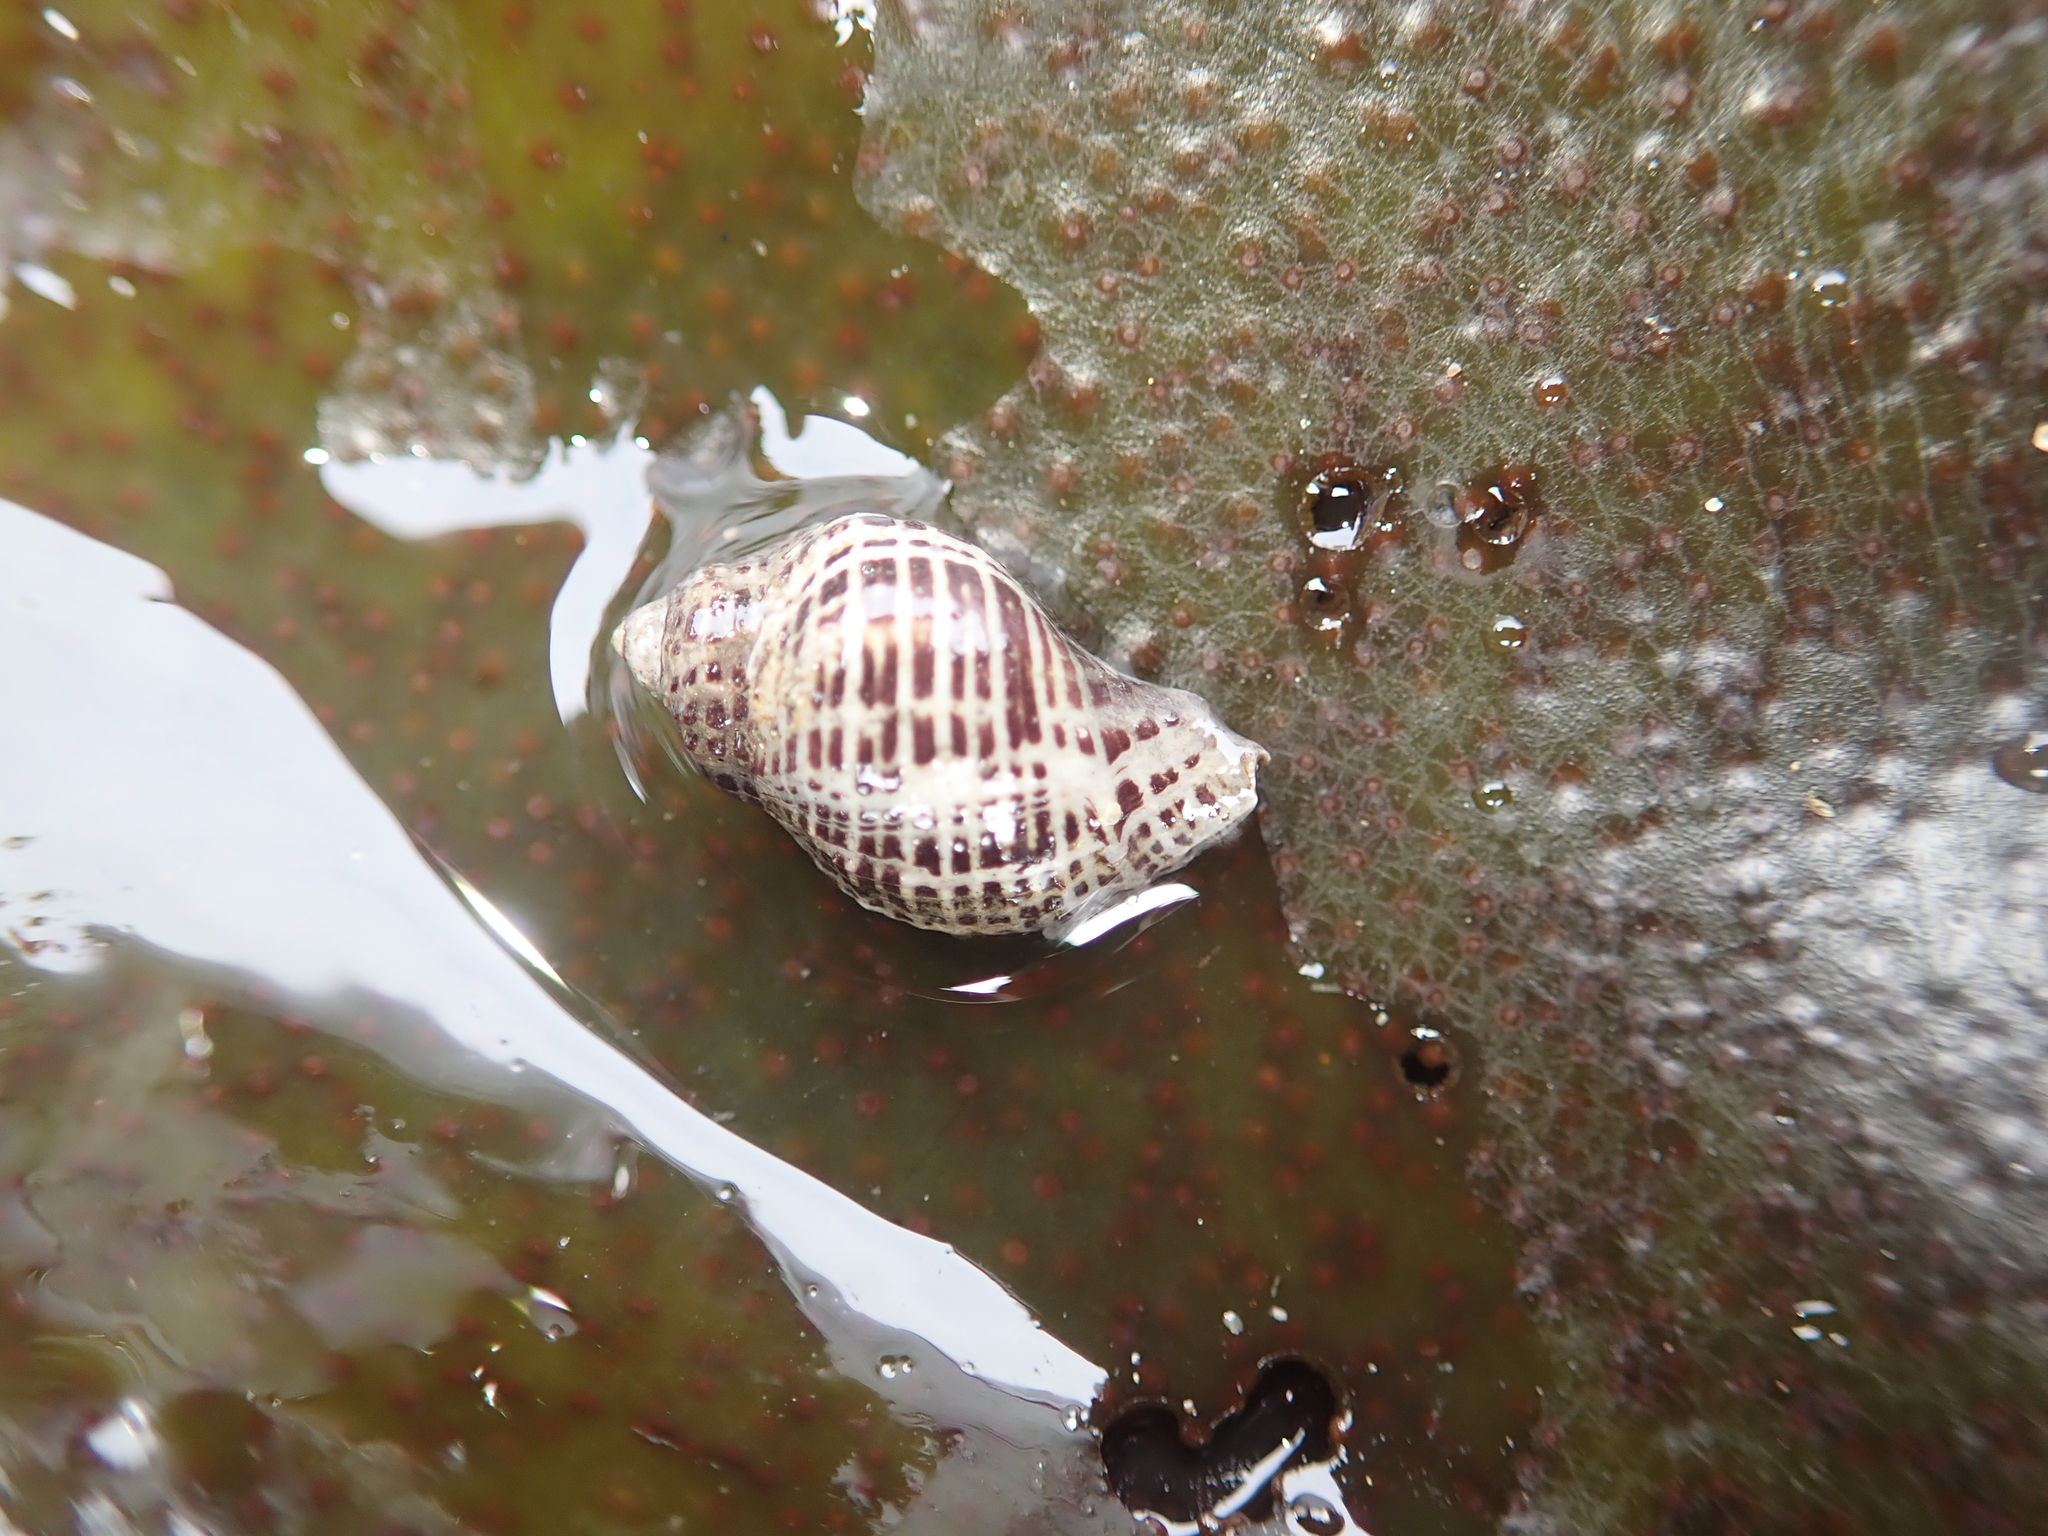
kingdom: Animalia
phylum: Mollusca
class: Gastropoda
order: Neogastropoda
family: Muricidae
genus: Acanthinucella
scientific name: Acanthinucella spirata
